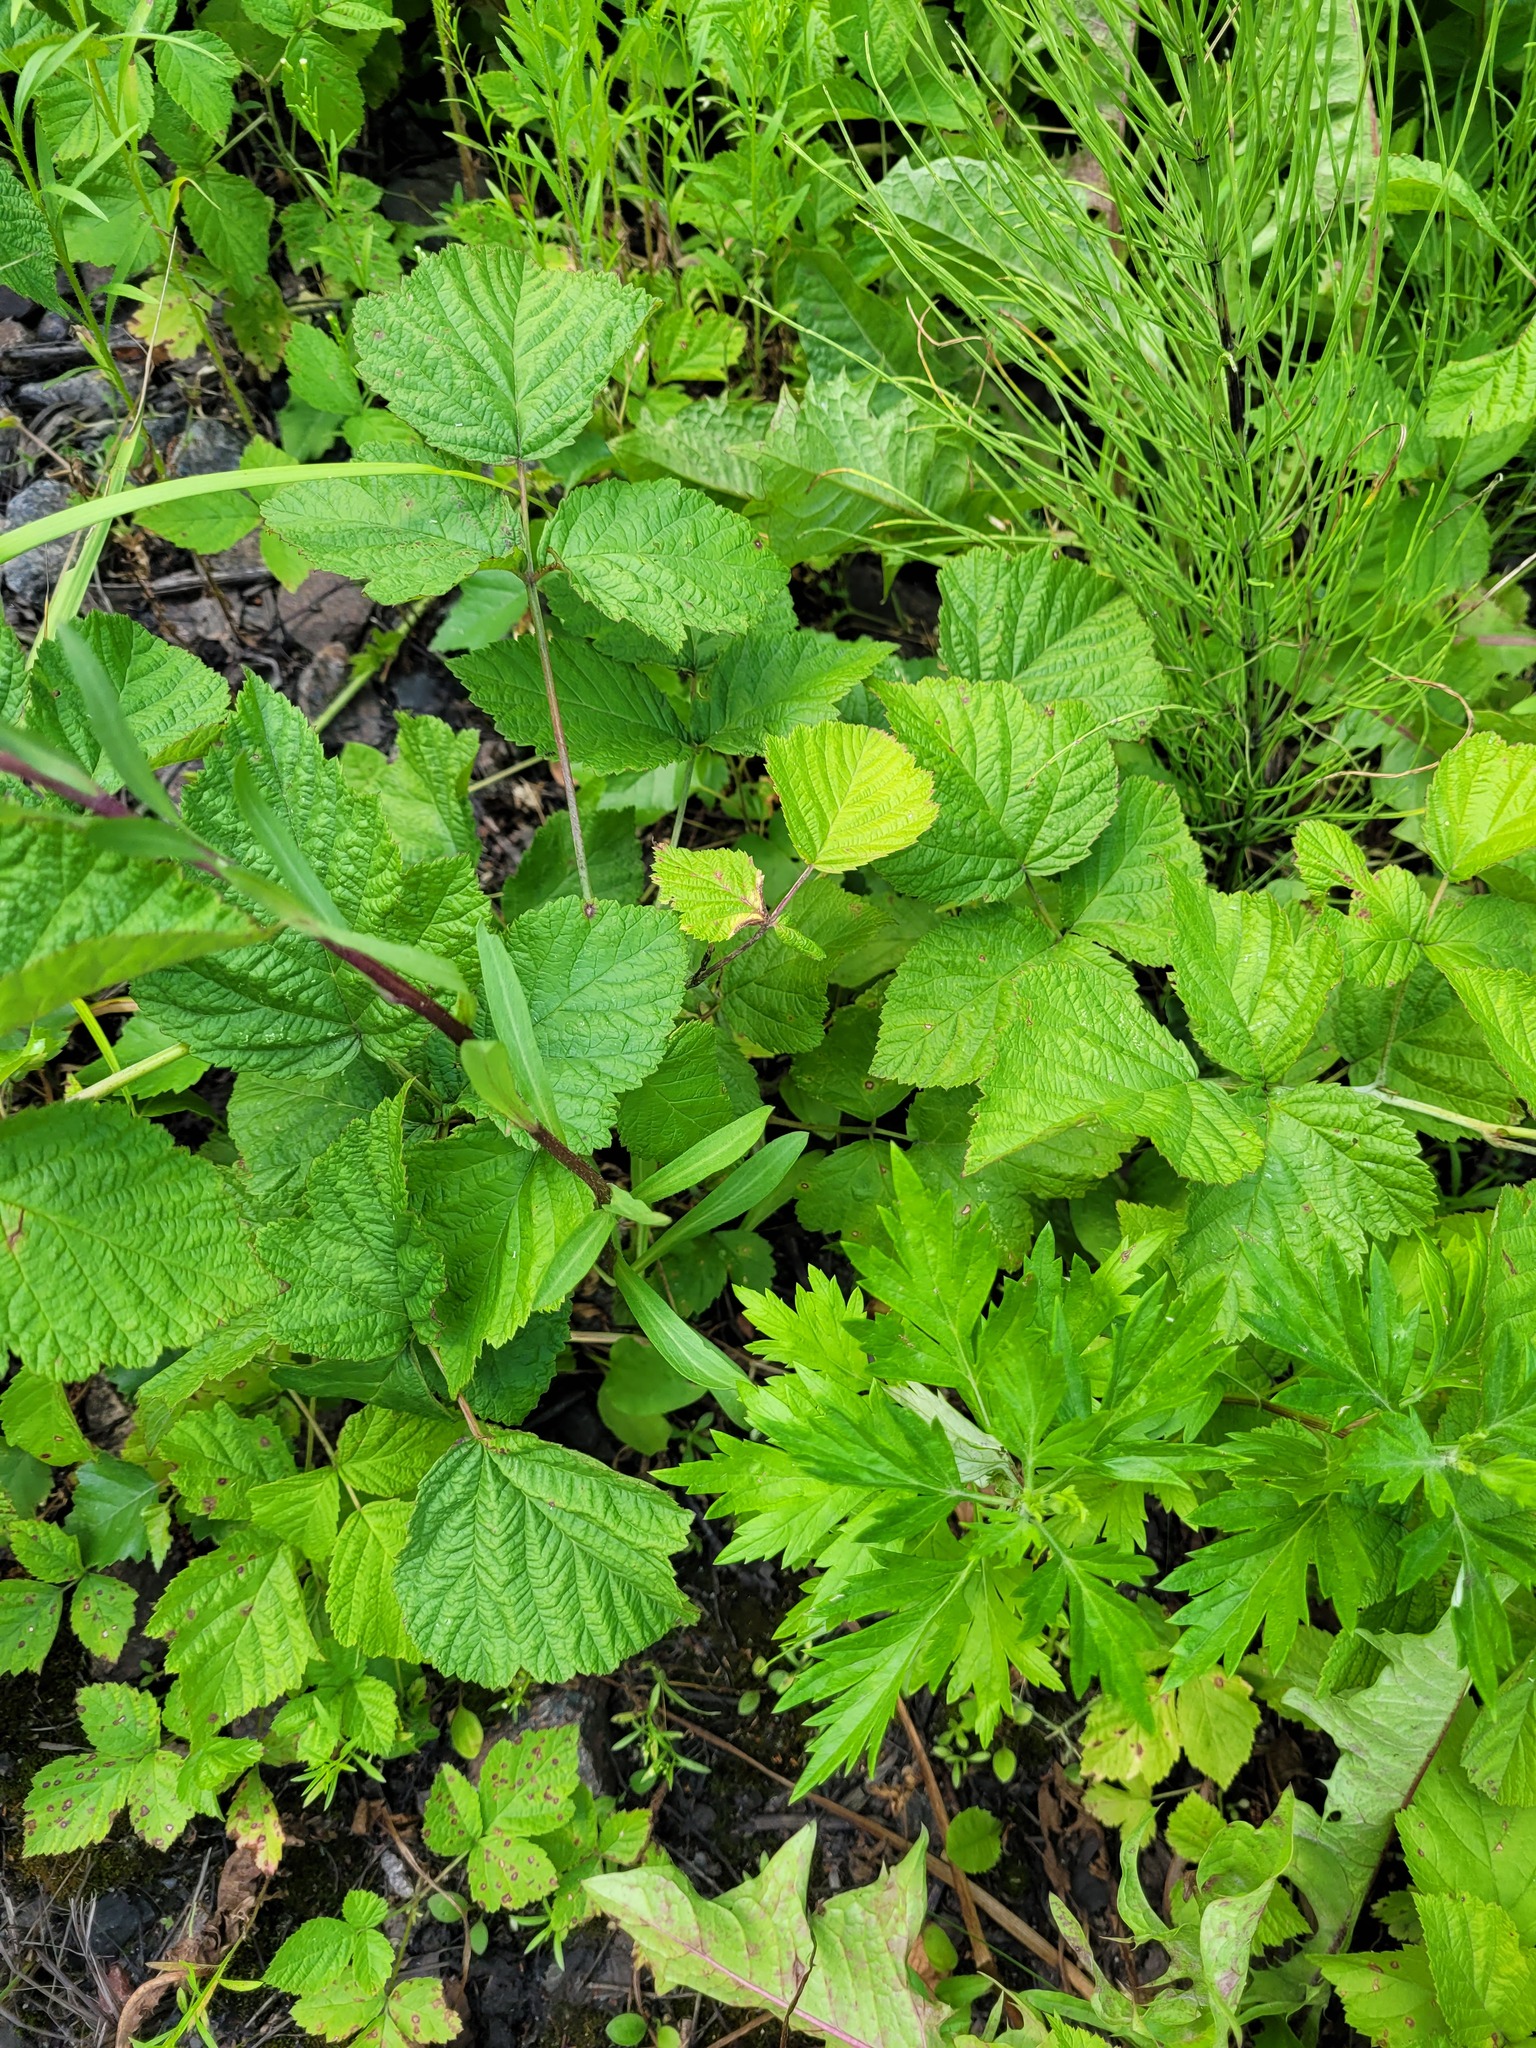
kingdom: Plantae
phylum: Tracheophyta
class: Magnoliopsida
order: Asterales
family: Asteraceae
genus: Erigeron
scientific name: Erigeron droebachiensis
